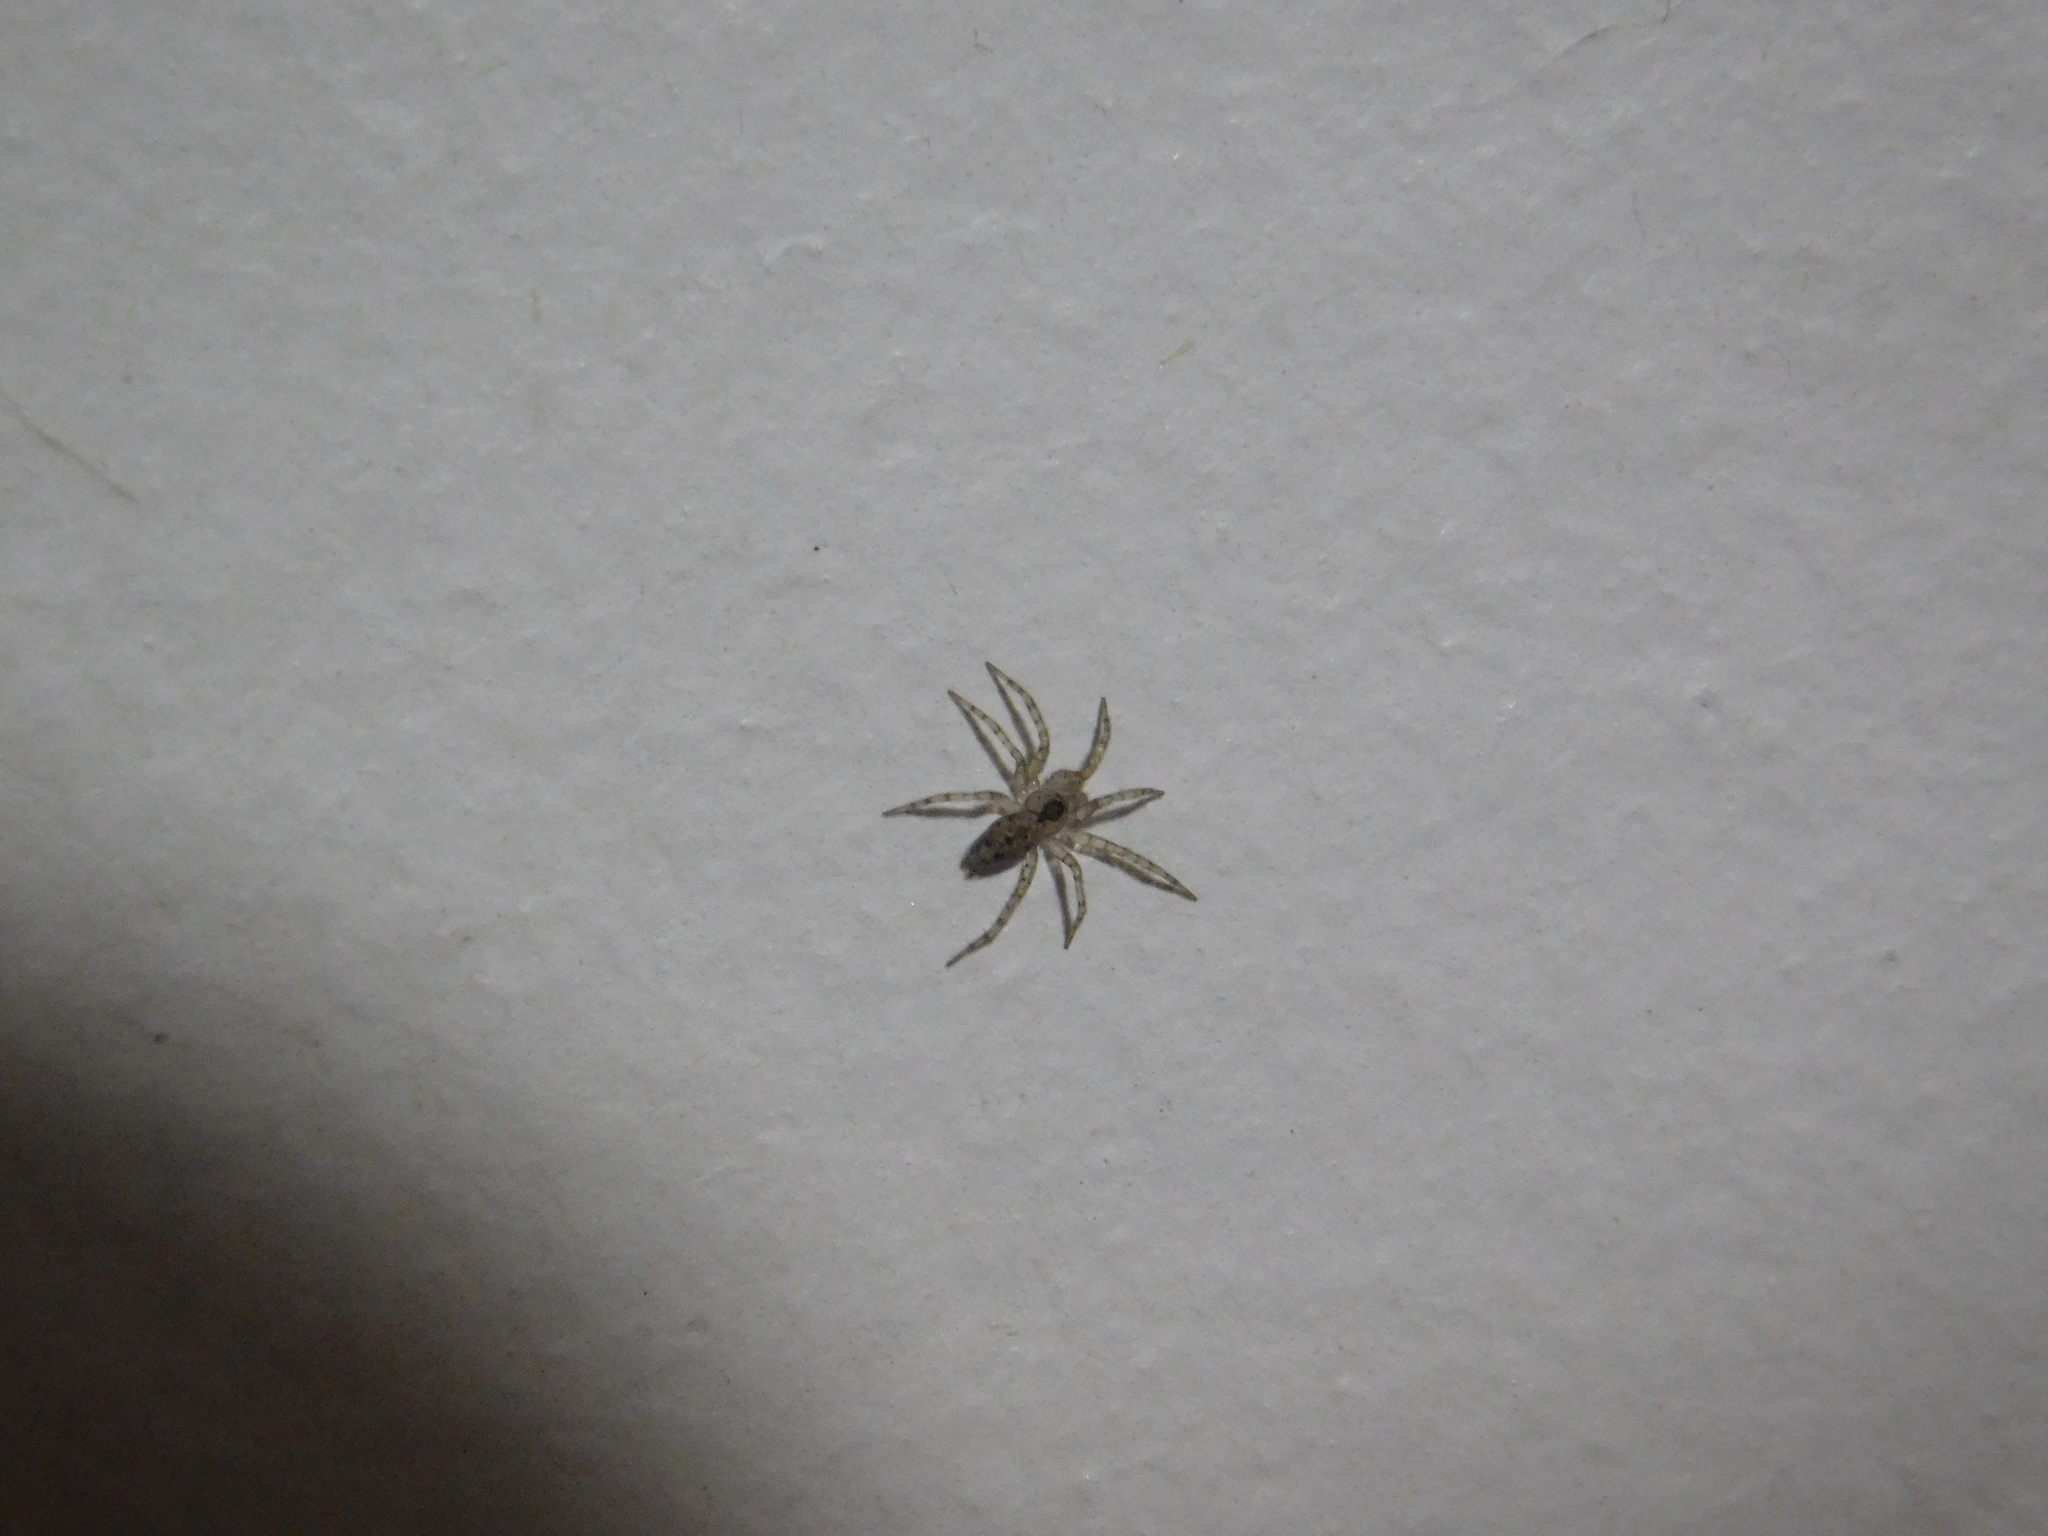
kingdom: Animalia
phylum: Arthropoda
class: Arachnida
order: Araneae
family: Oecobiidae
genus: Oecobius
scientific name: Oecobius navus
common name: Flatmesh weaver
